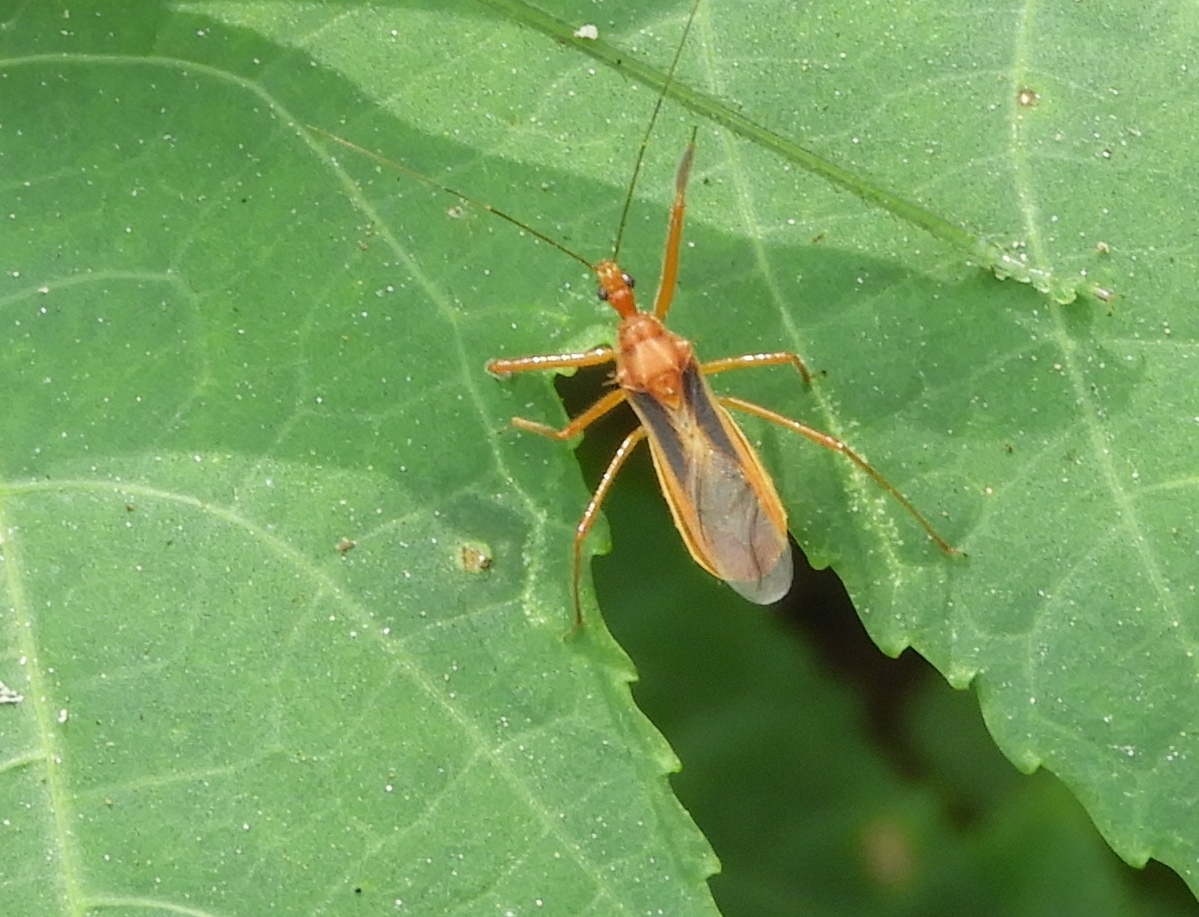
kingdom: Animalia
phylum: Arthropoda
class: Insecta
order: Hemiptera
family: Reduviidae
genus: Repipta
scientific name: Repipta
